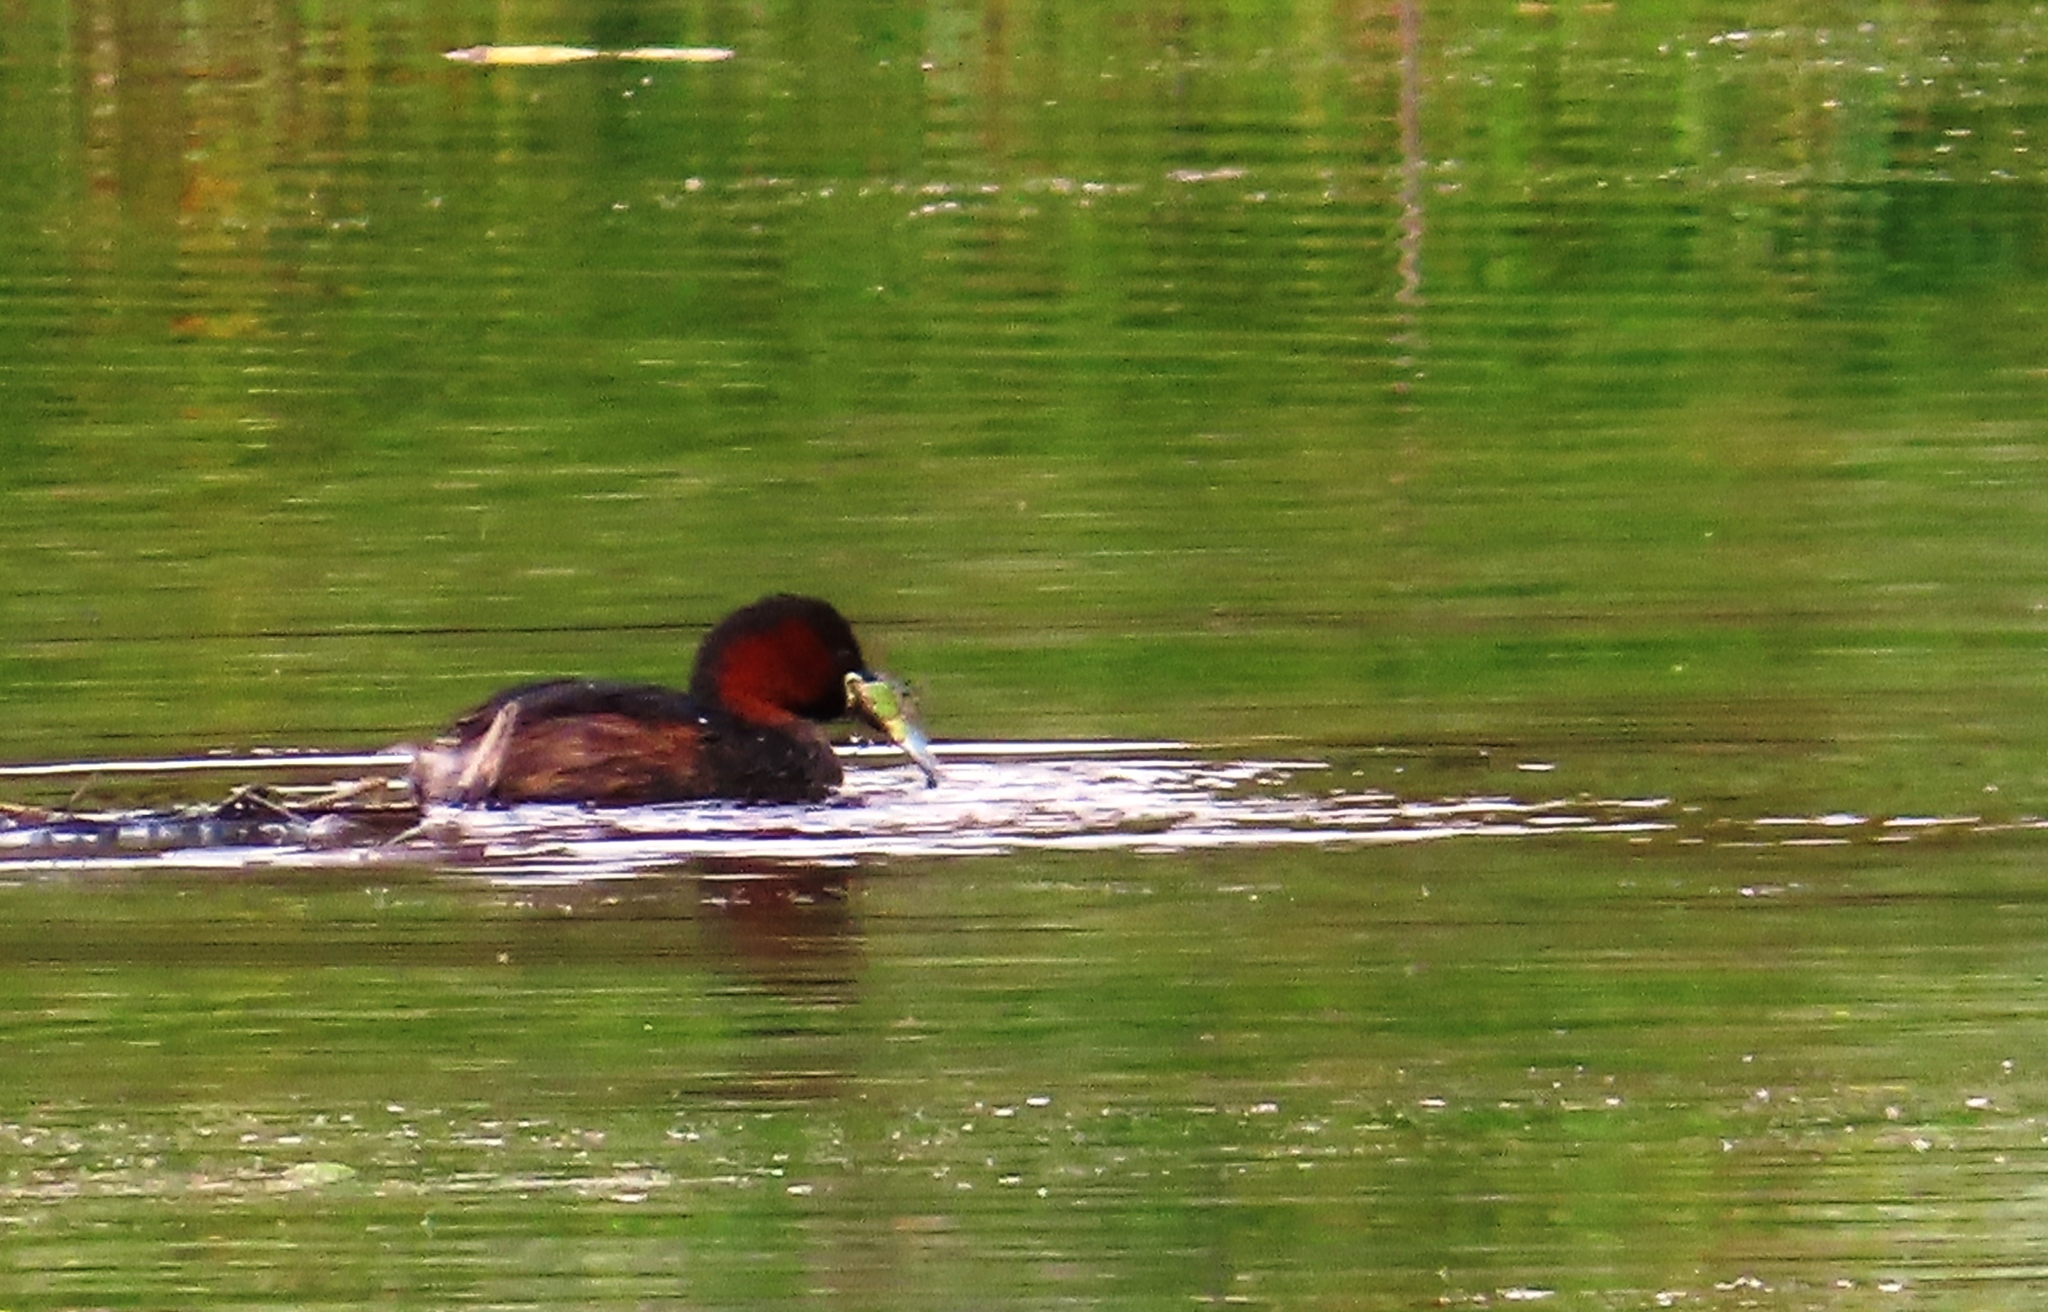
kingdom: Animalia
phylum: Chordata
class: Aves
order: Podicipediformes
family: Podicipedidae
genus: Tachybaptus
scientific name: Tachybaptus ruficollis
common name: Little grebe
